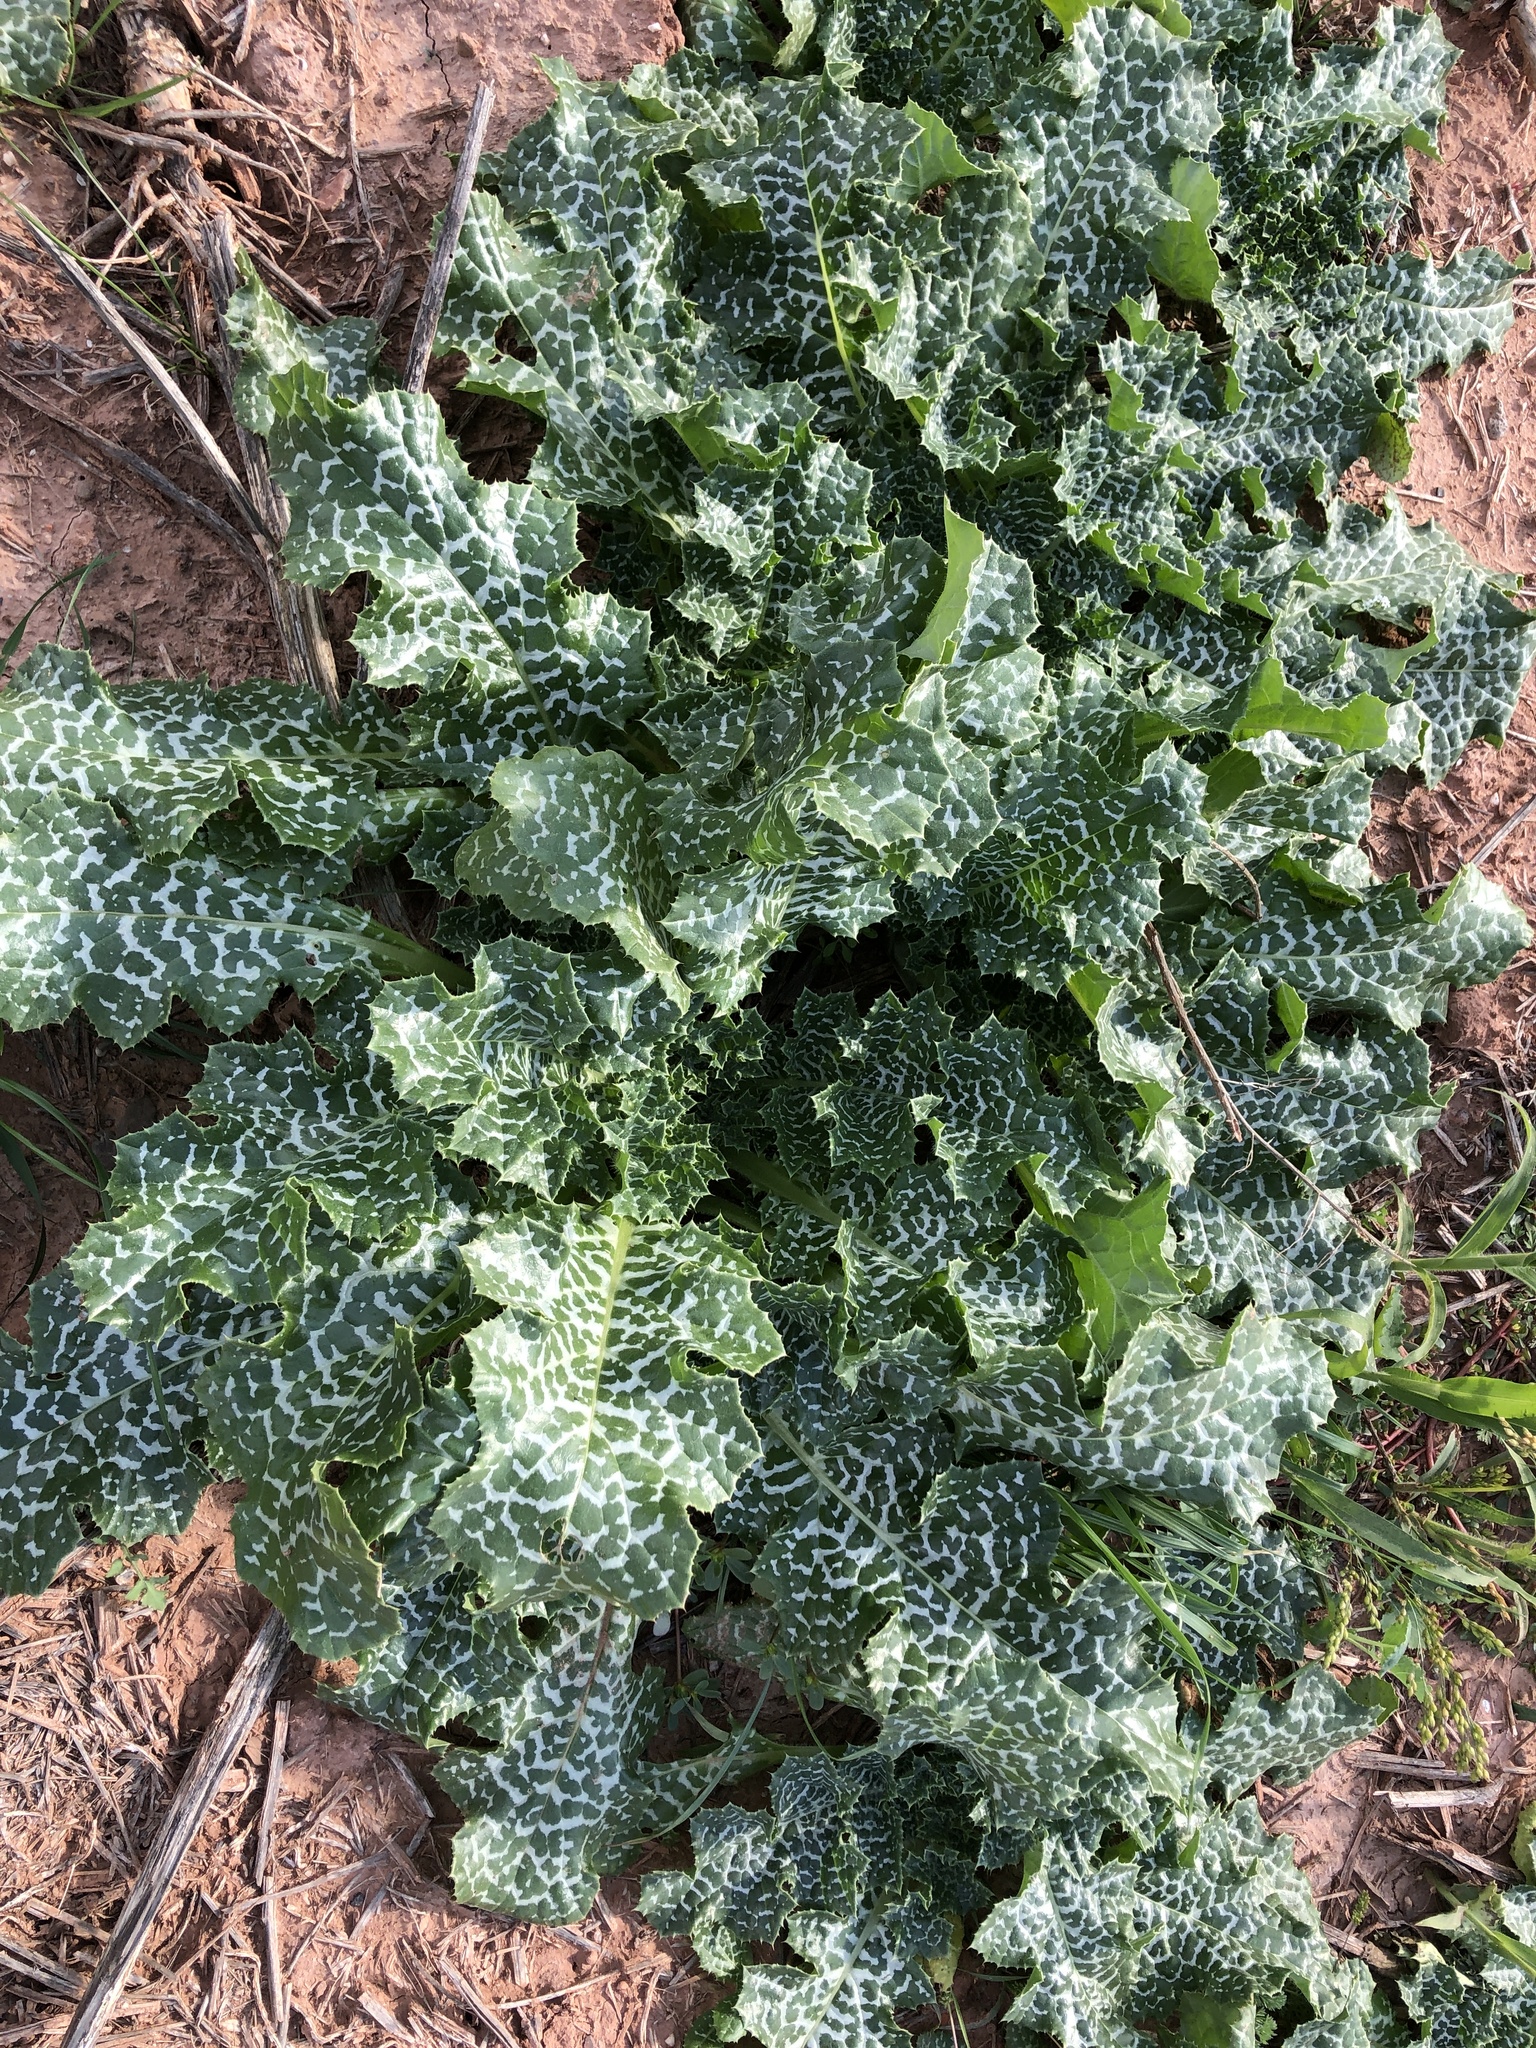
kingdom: Plantae
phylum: Tracheophyta
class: Magnoliopsida
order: Asterales
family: Asteraceae
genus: Silybum
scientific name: Silybum marianum
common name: Milk thistle
